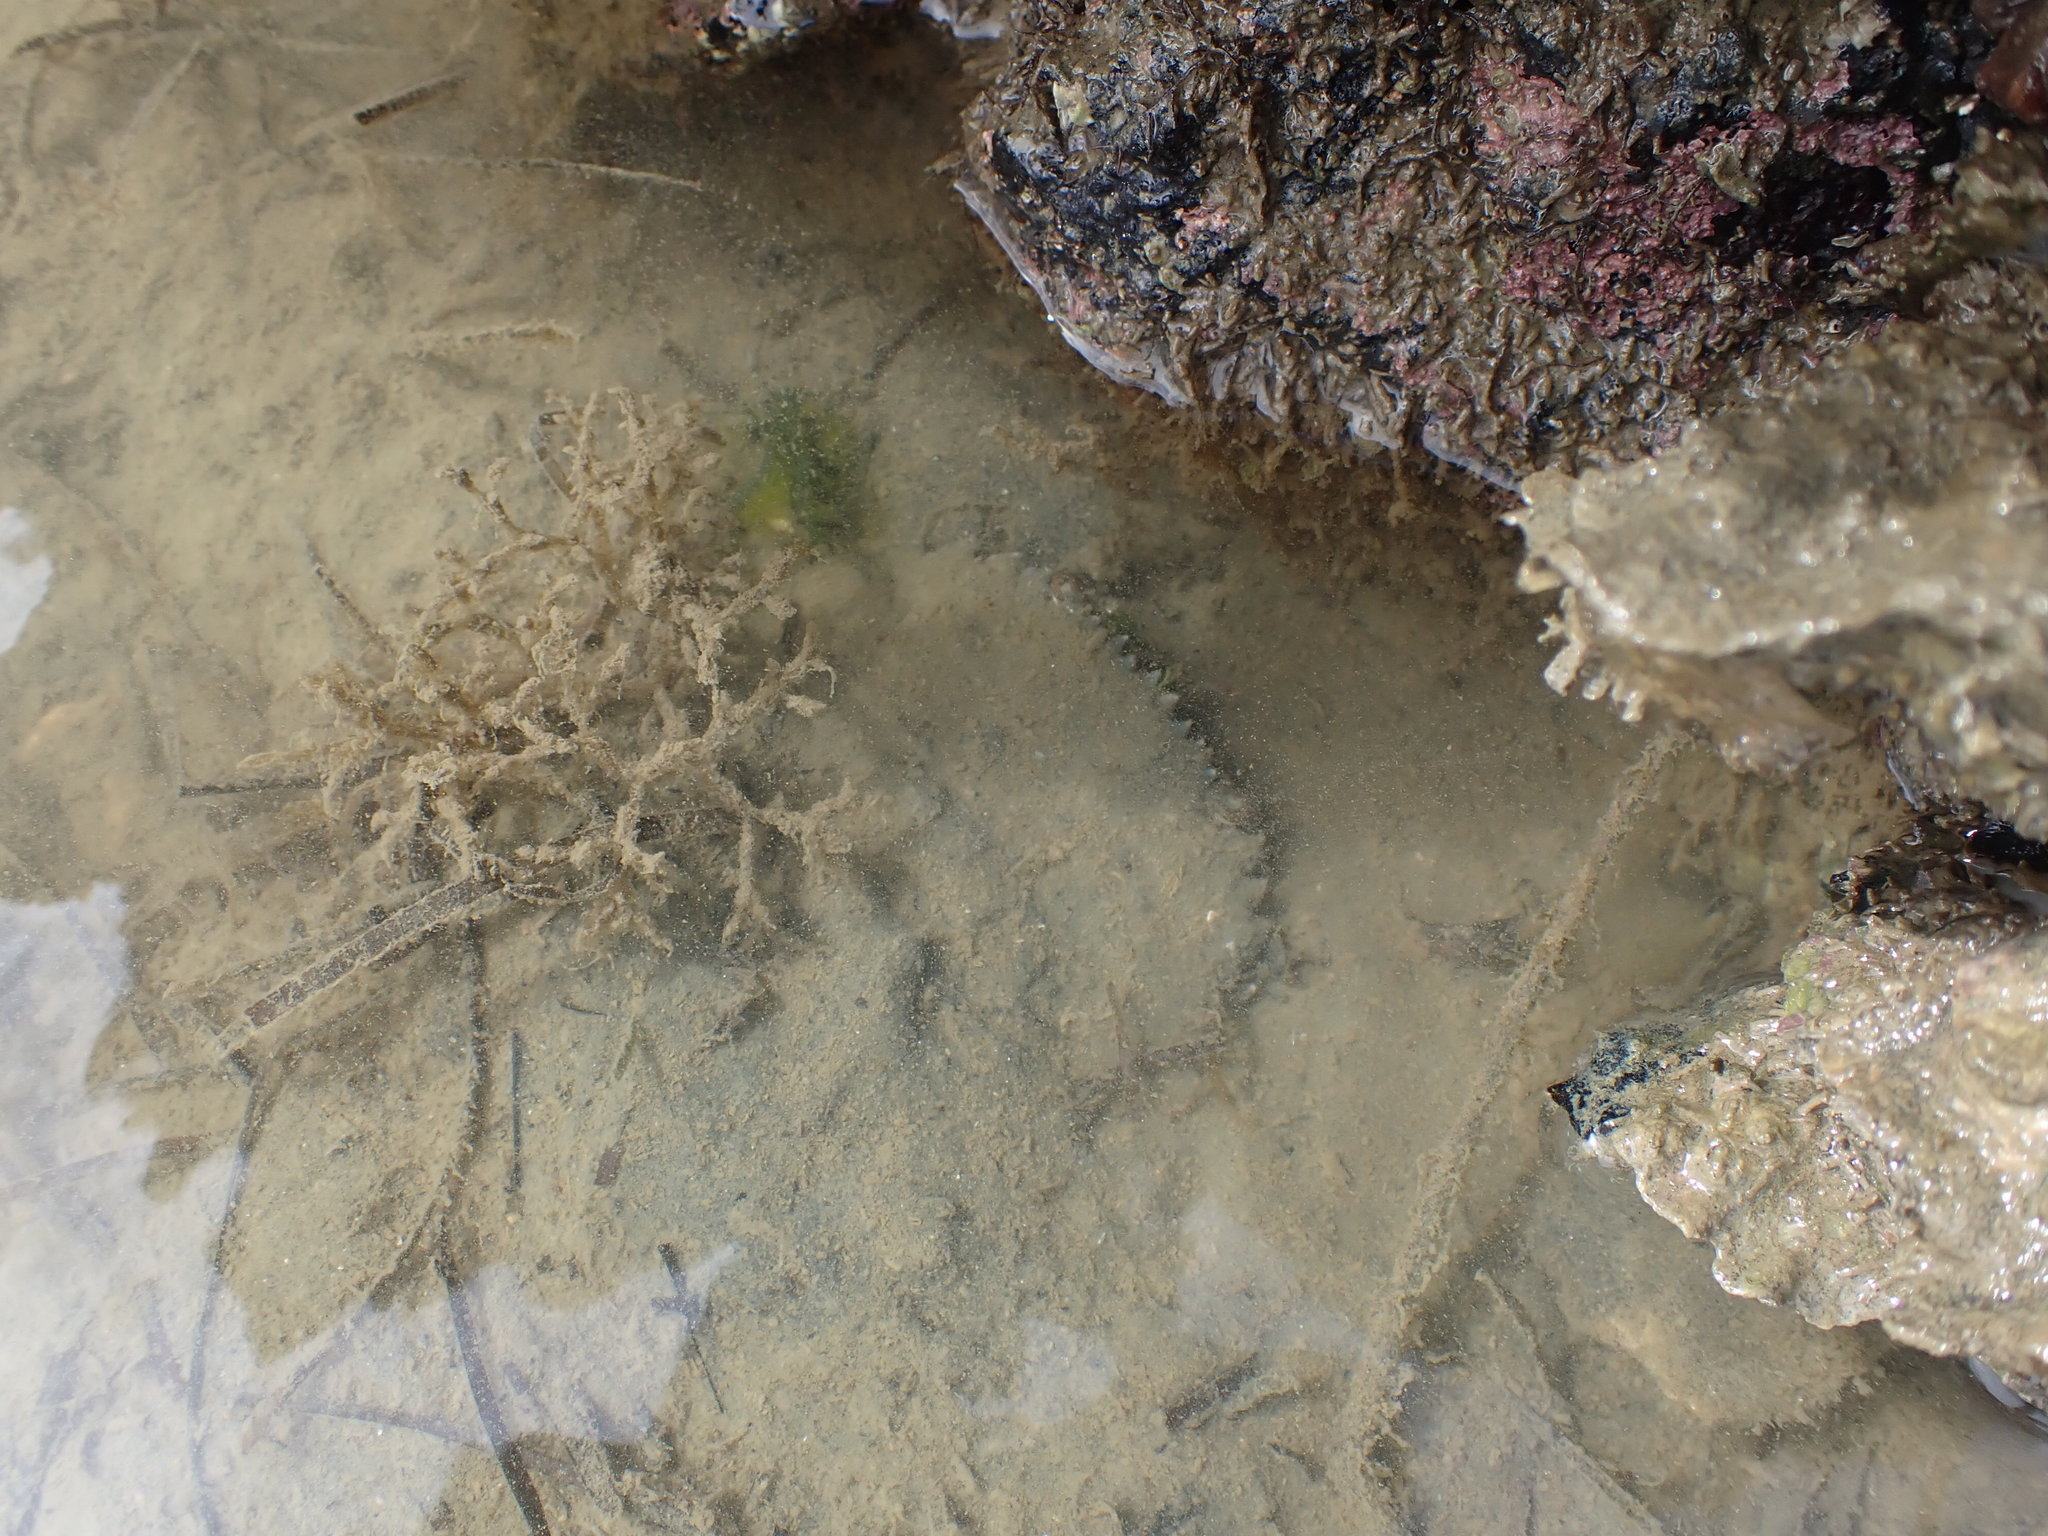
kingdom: Animalia
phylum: Arthropoda
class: Malacostraca
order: Decapoda
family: Portunidae
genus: Charybdis
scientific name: Charybdis japonica
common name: Asian paddle crab
